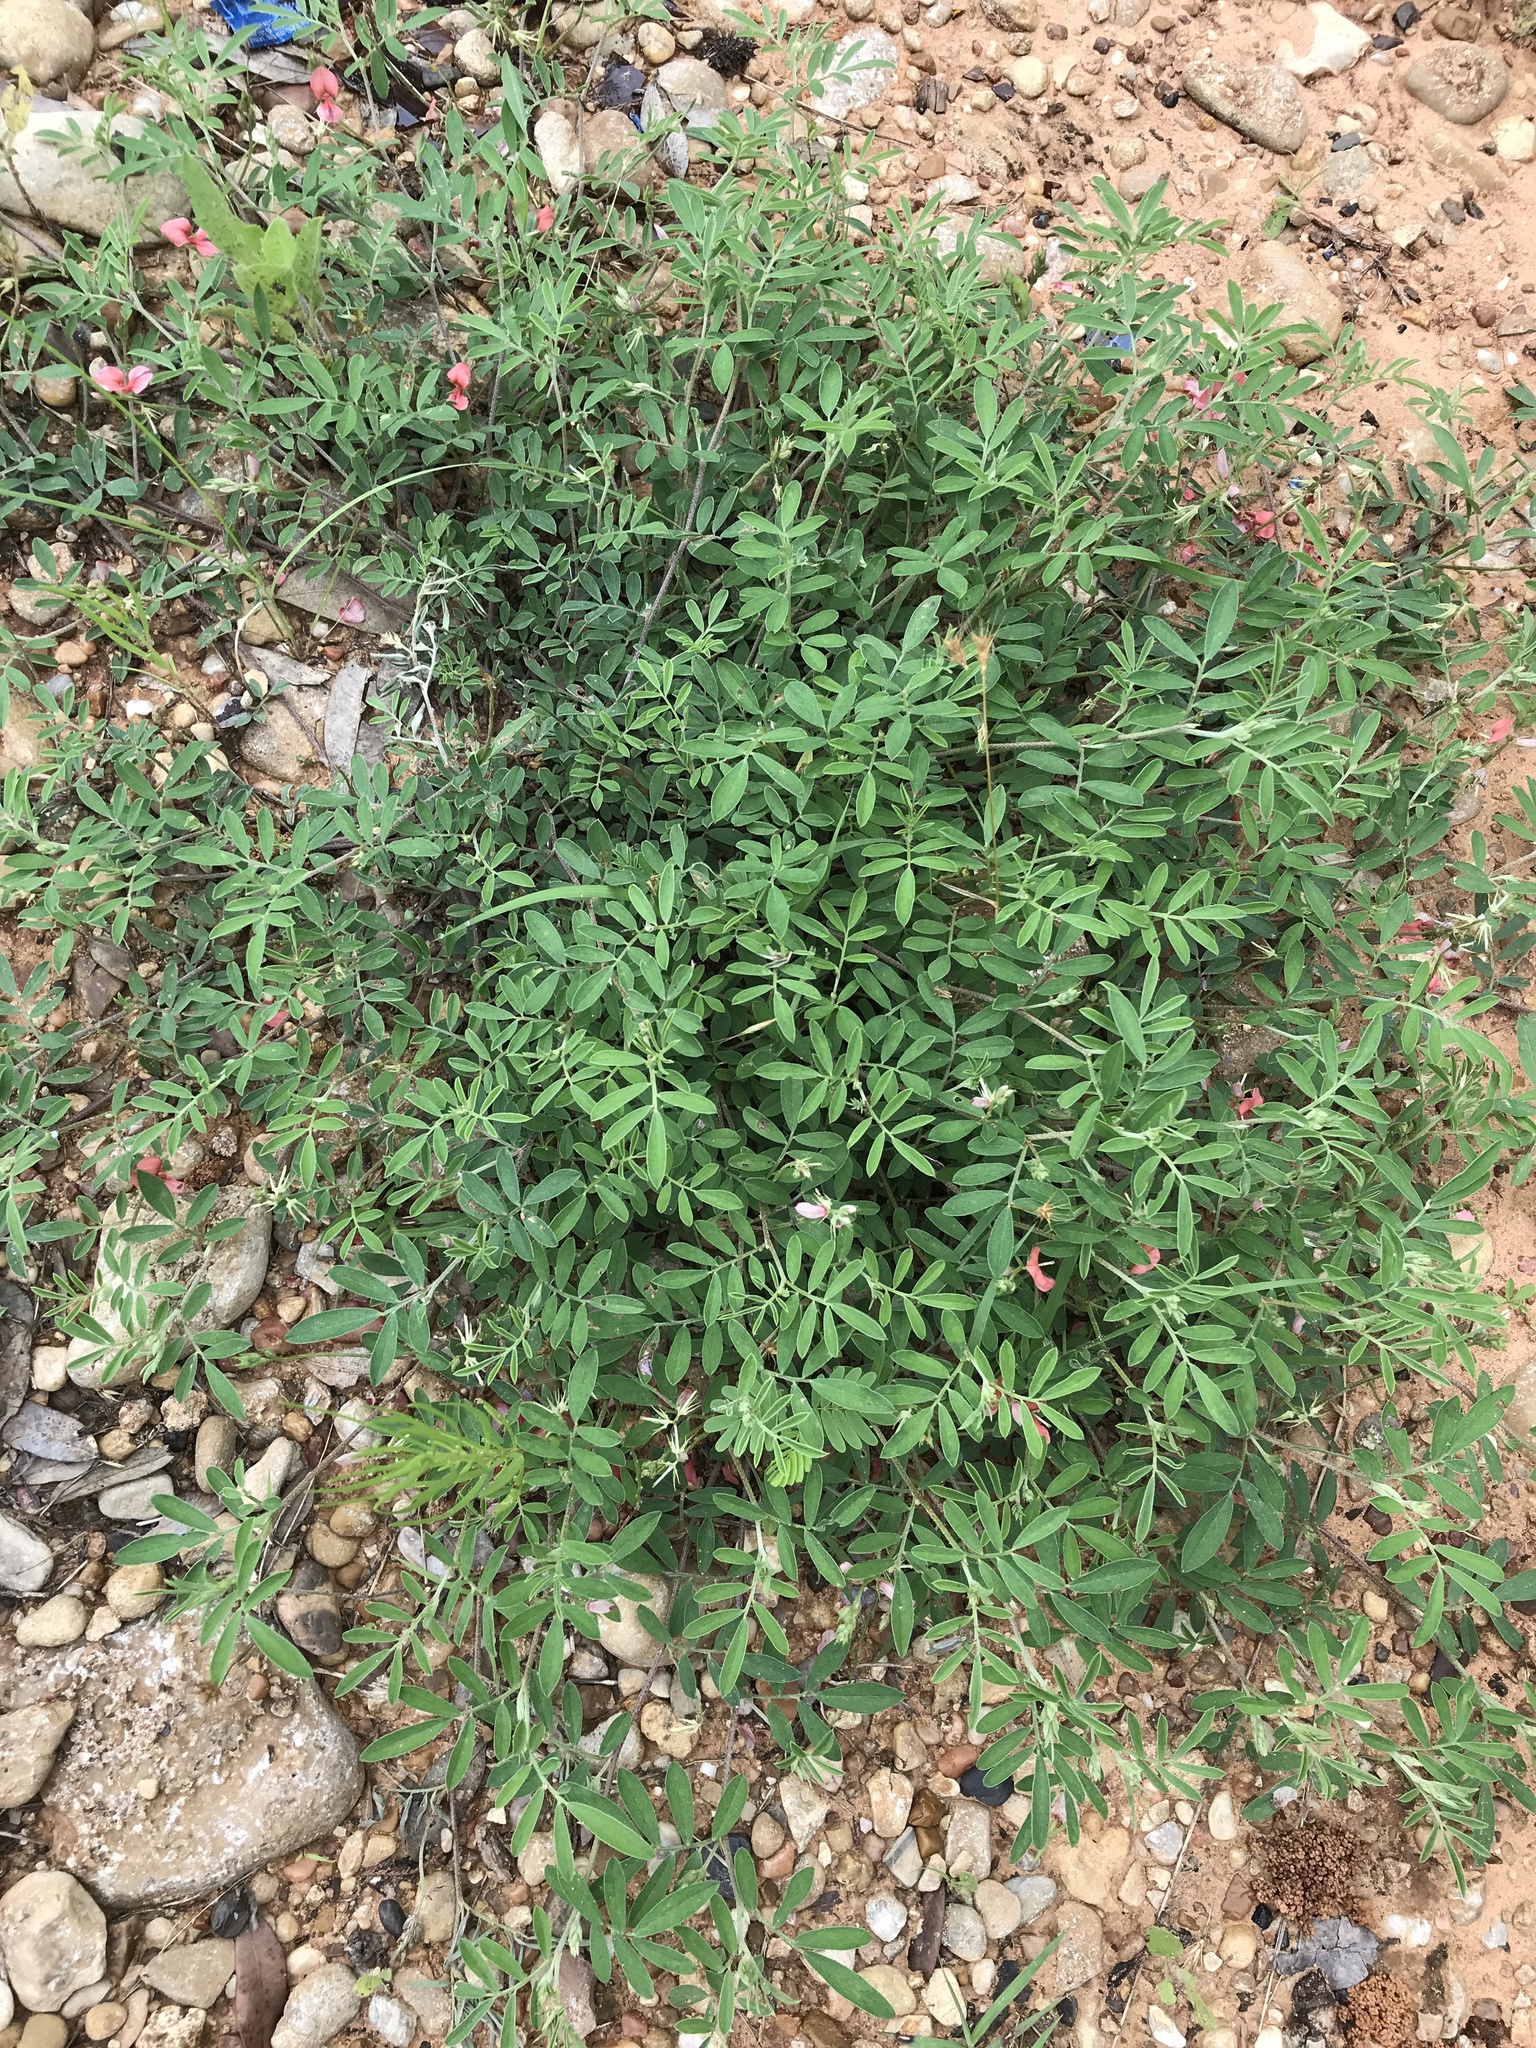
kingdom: Plantae
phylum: Tracheophyta
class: Magnoliopsida
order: Fabales
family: Fabaceae
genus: Indigofera
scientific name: Indigofera miniata
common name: Coast indigo
